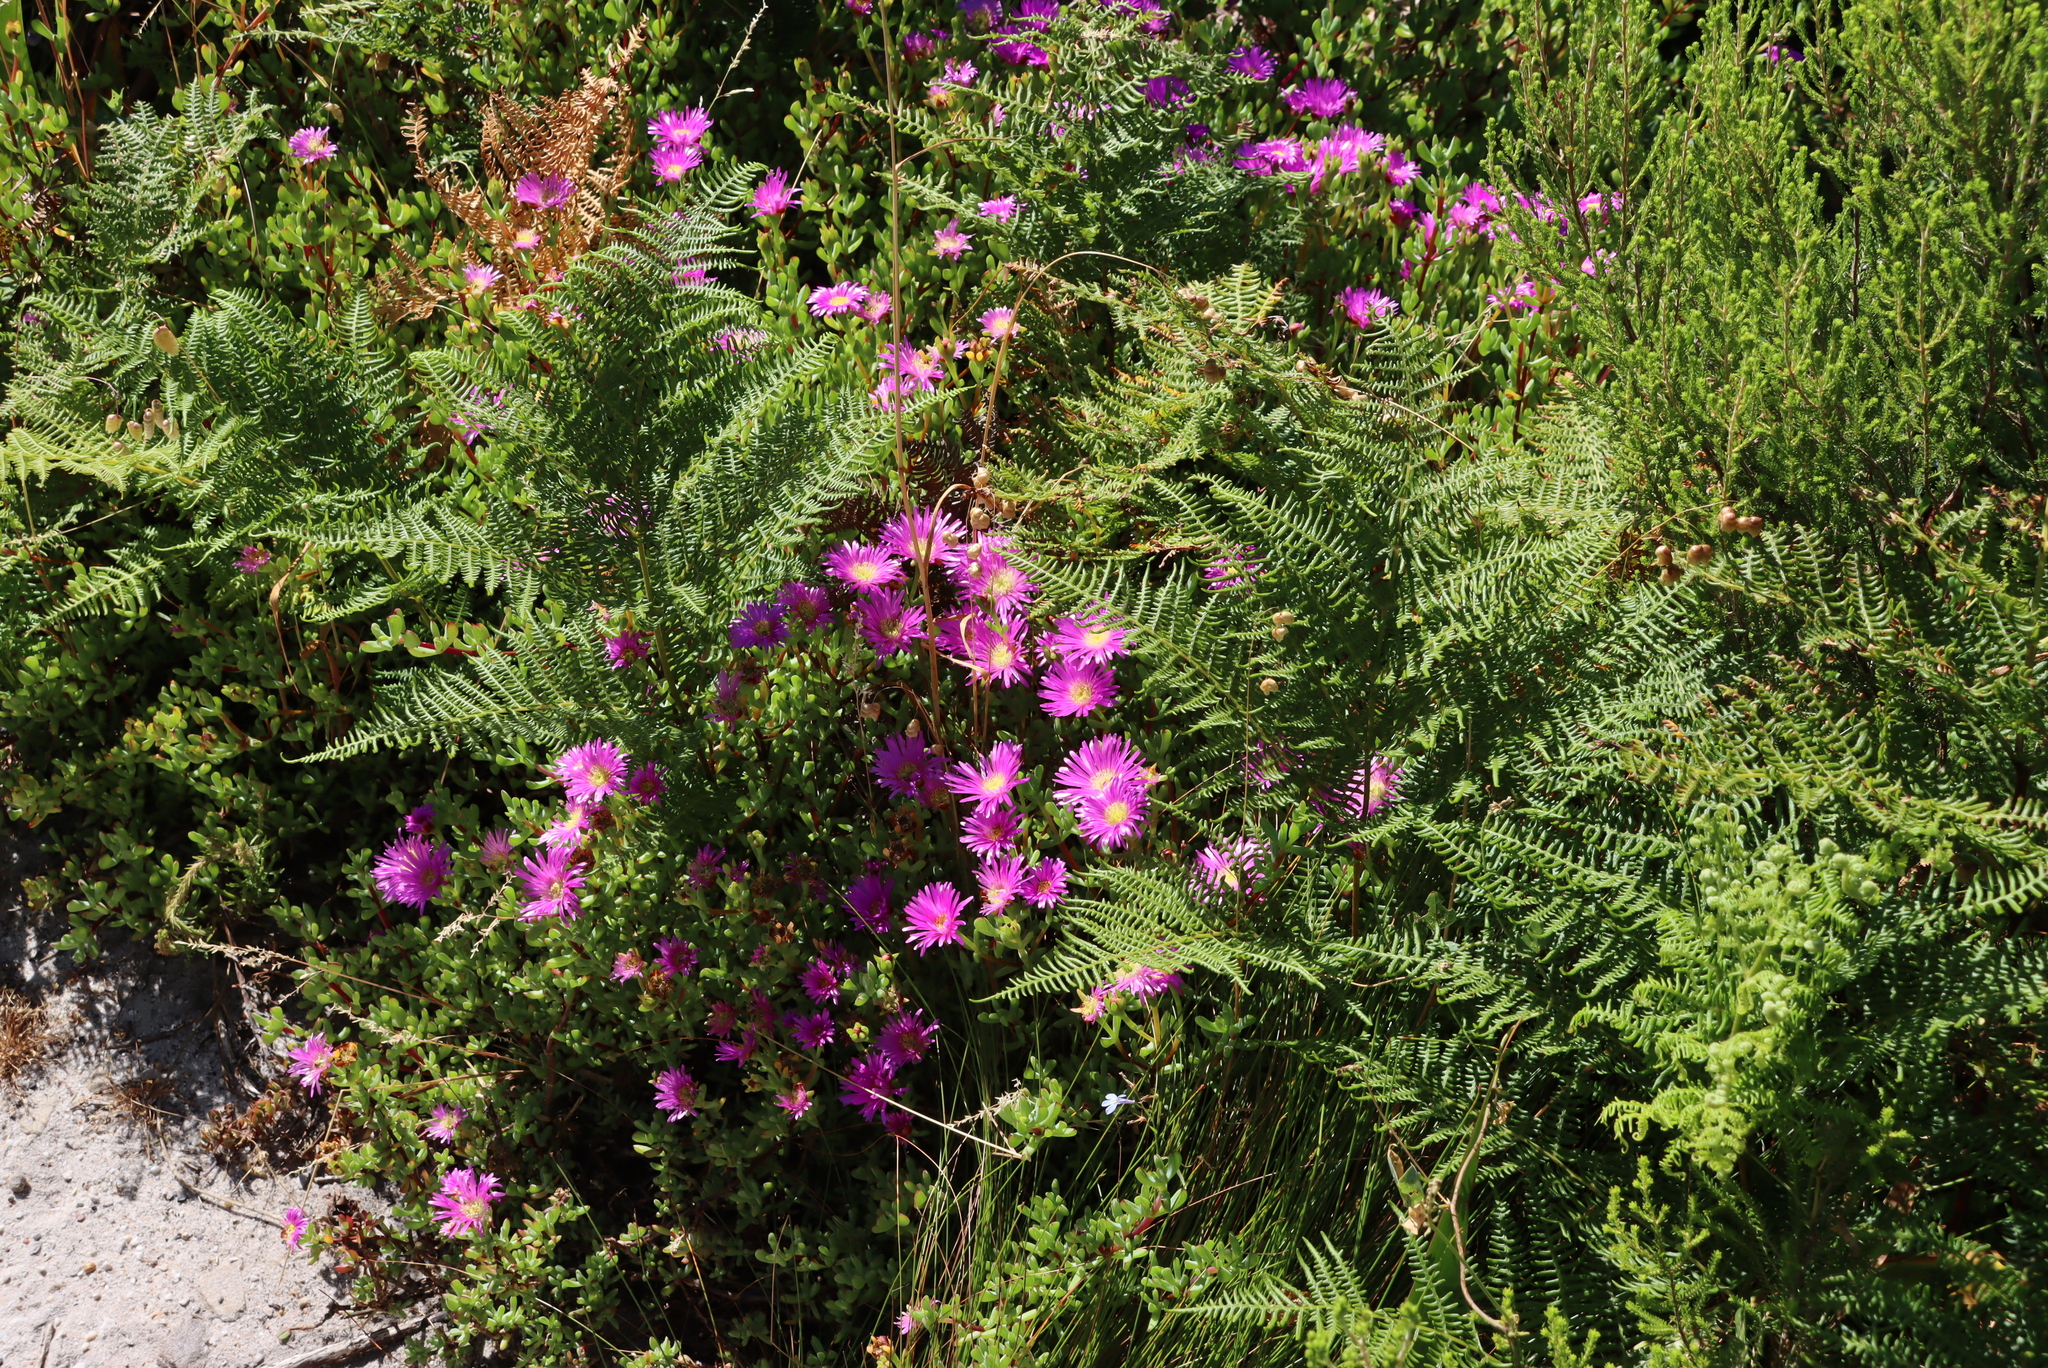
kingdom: Plantae
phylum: Tracheophyta
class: Magnoliopsida
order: Caryophyllales
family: Aizoaceae
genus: Oscularia
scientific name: Oscularia falciformis
